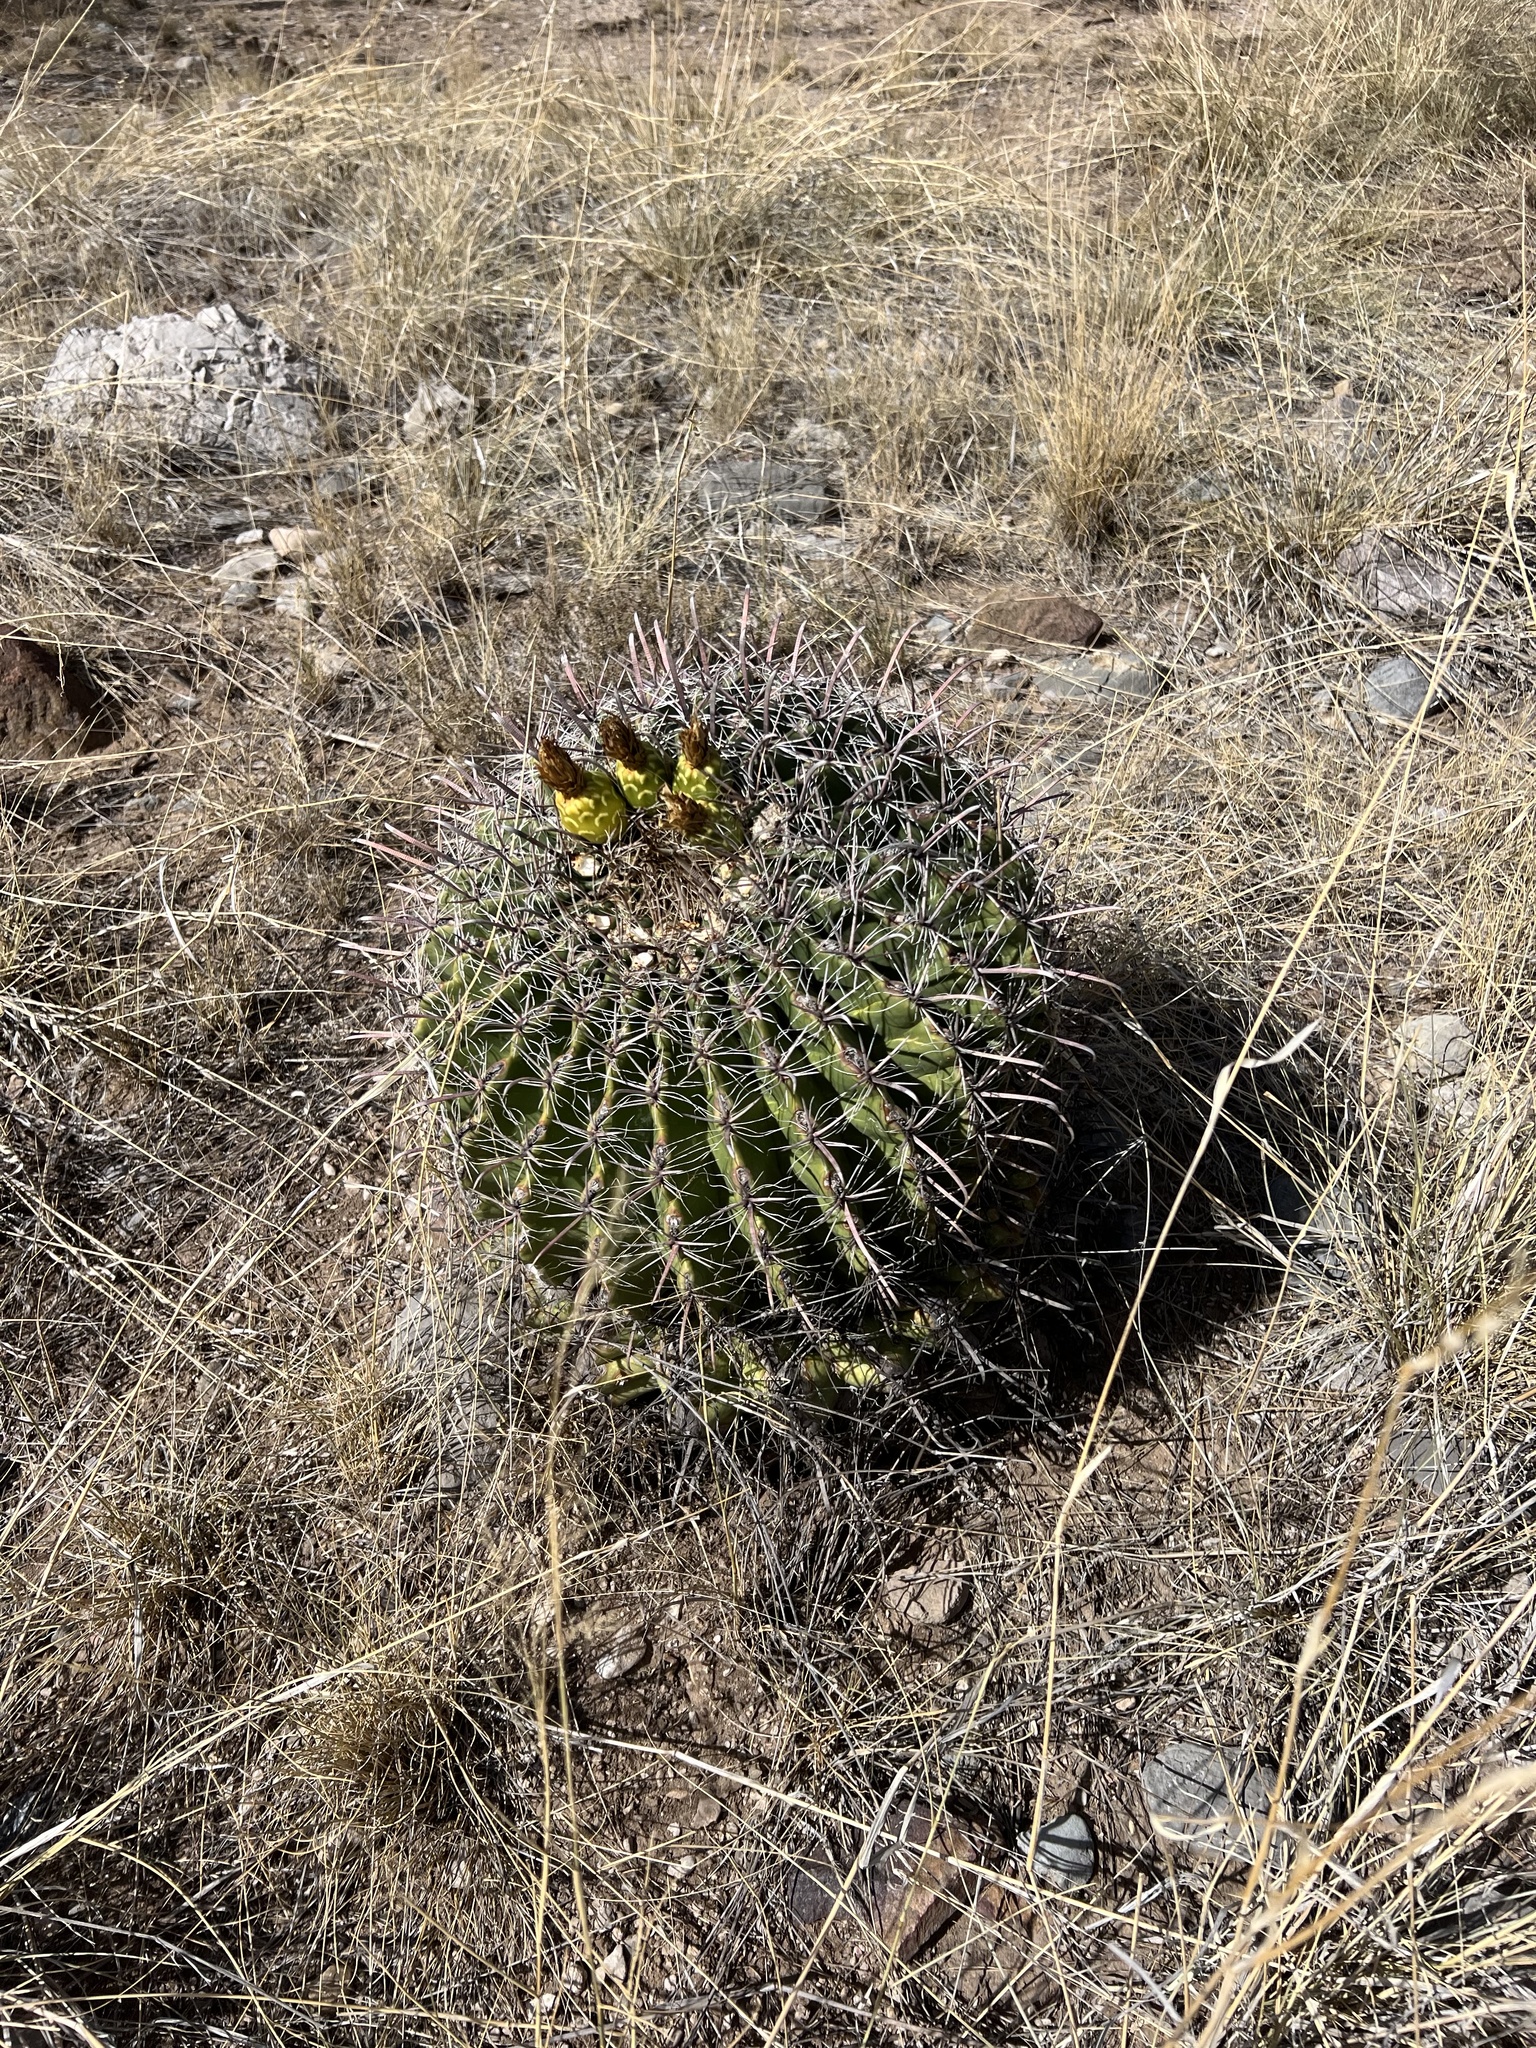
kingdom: Plantae
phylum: Tracheophyta
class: Magnoliopsida
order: Caryophyllales
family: Cactaceae
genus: Ferocactus
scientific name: Ferocactus wislizeni
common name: Candy barrel cactus
